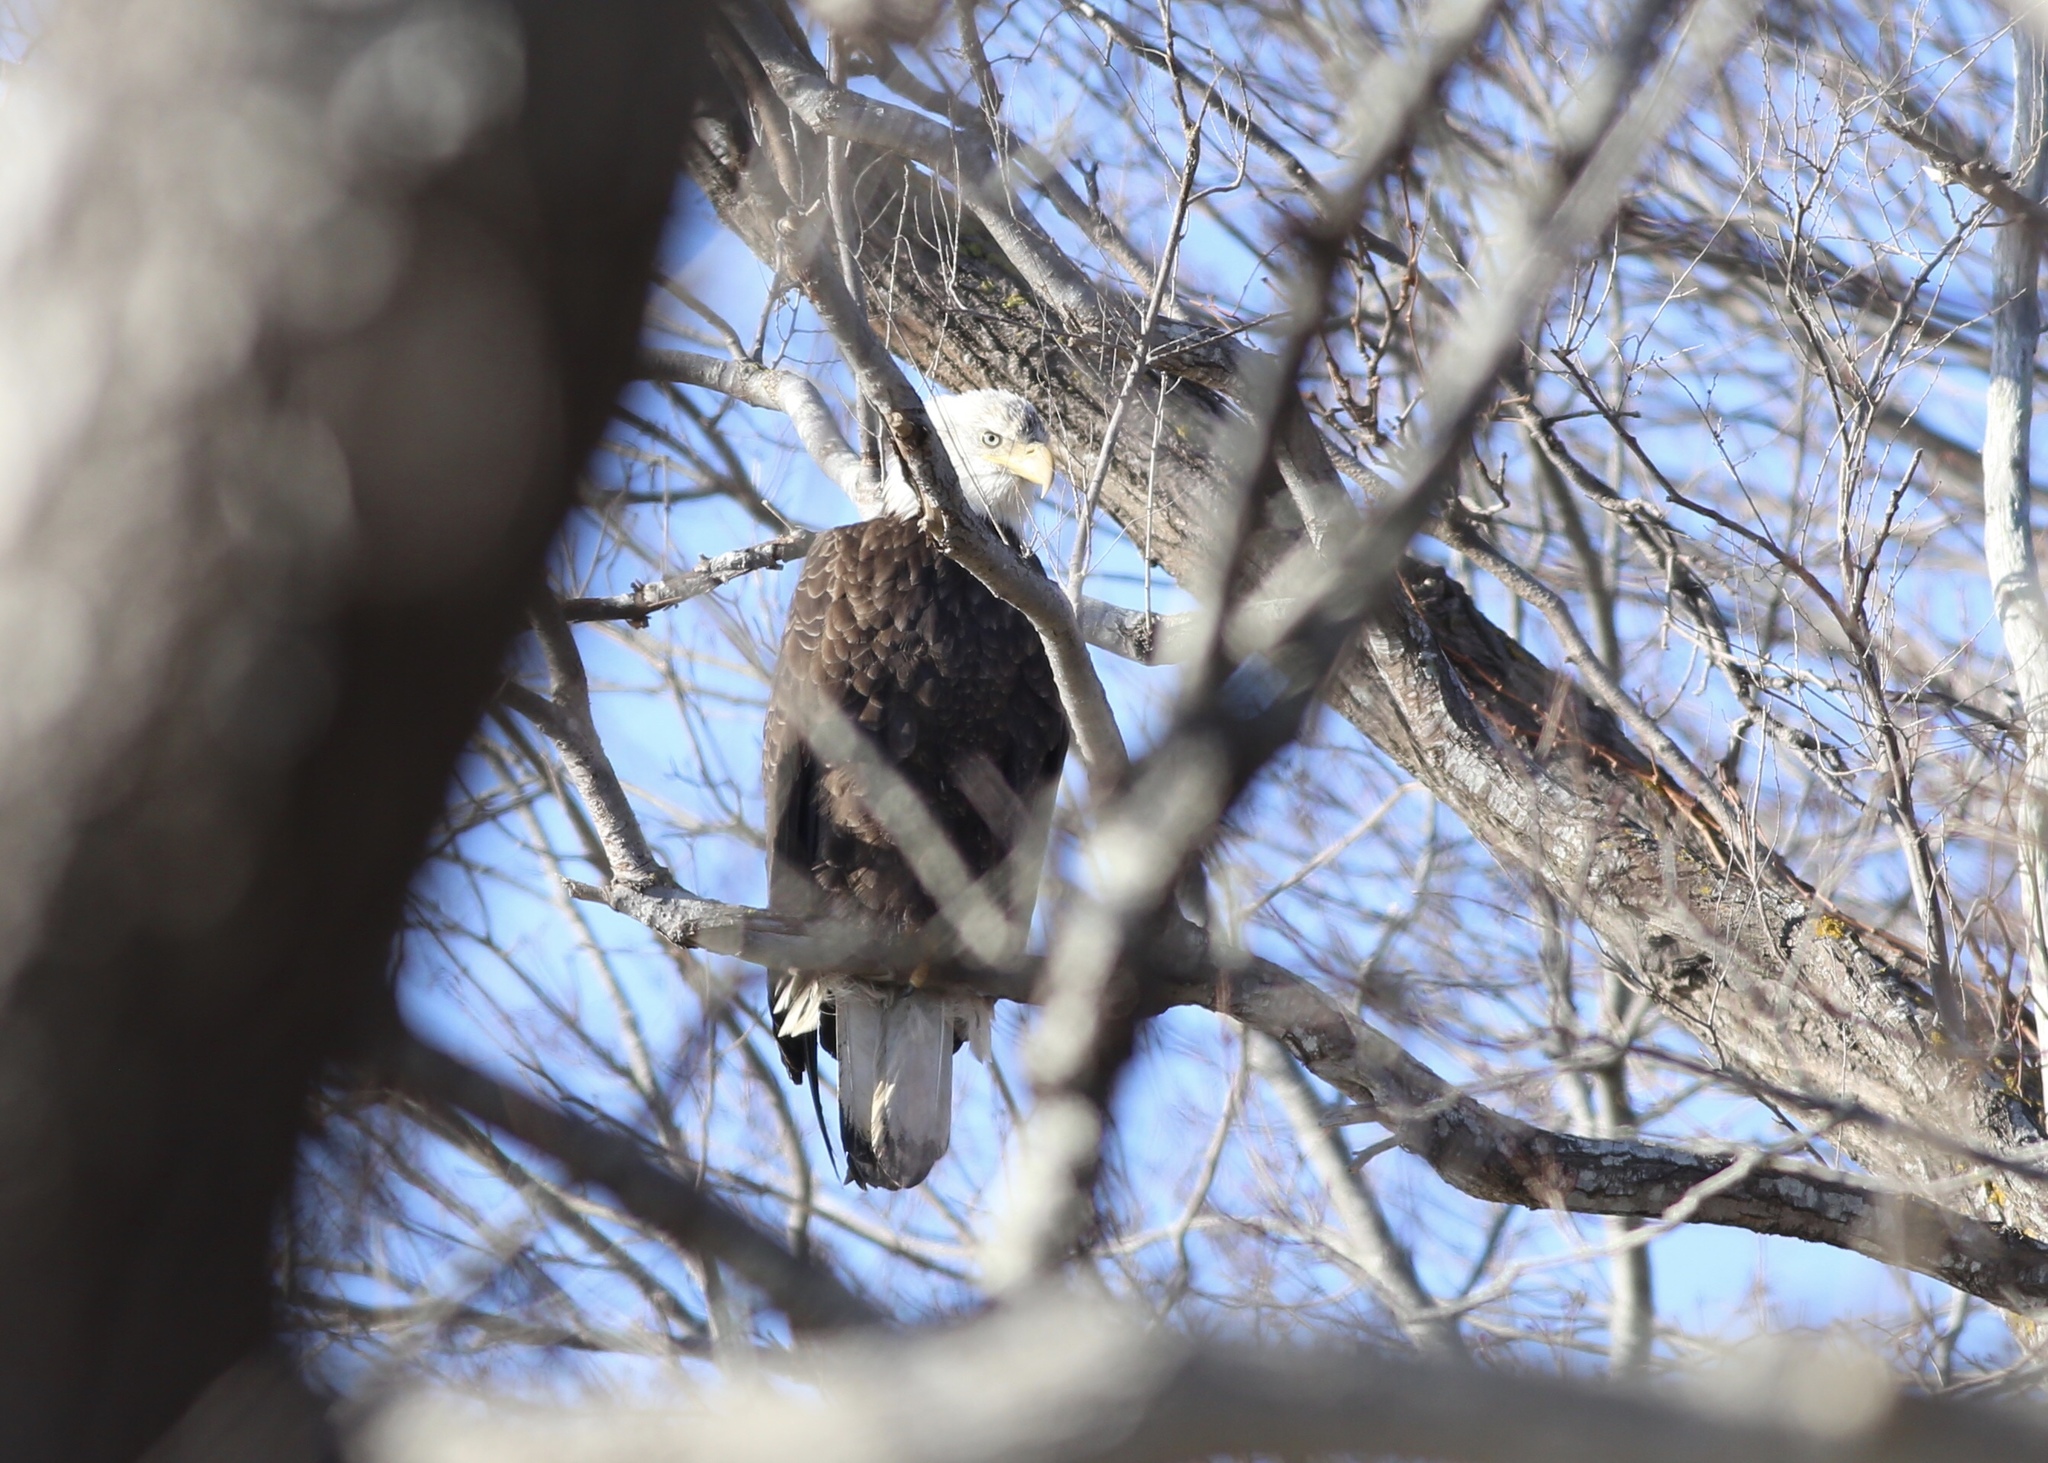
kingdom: Animalia
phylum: Chordata
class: Aves
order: Accipitriformes
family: Accipitridae
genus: Haliaeetus
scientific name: Haliaeetus leucocephalus
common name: Bald eagle
